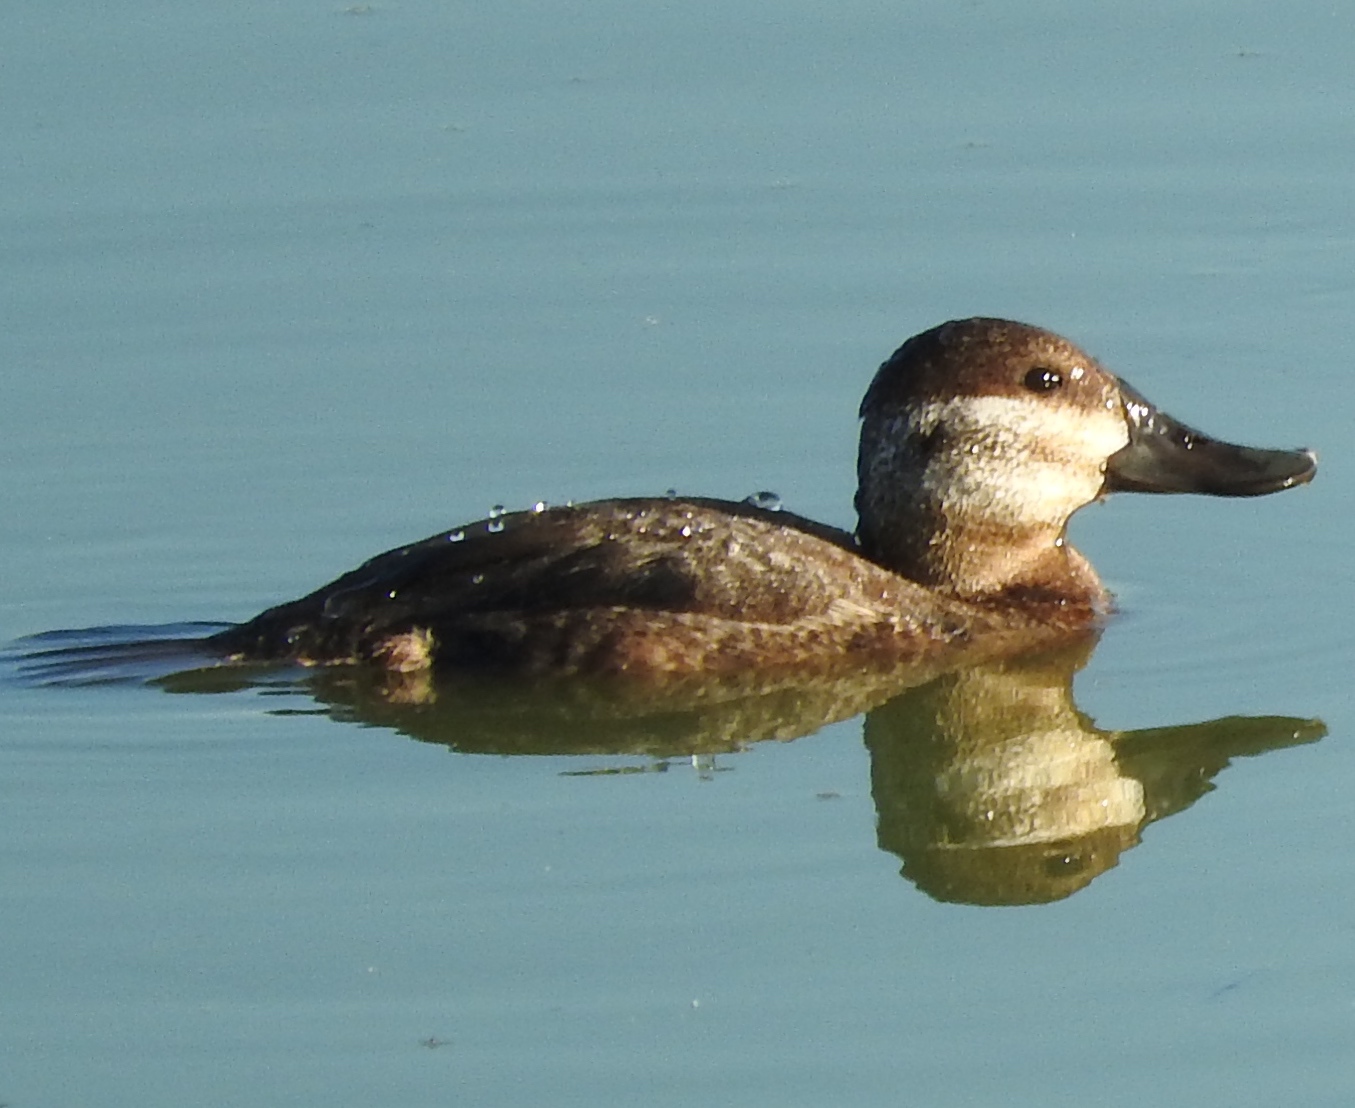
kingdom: Animalia
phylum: Chordata
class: Aves
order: Anseriformes
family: Anatidae
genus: Oxyura
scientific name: Oxyura jamaicensis
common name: Ruddy duck
